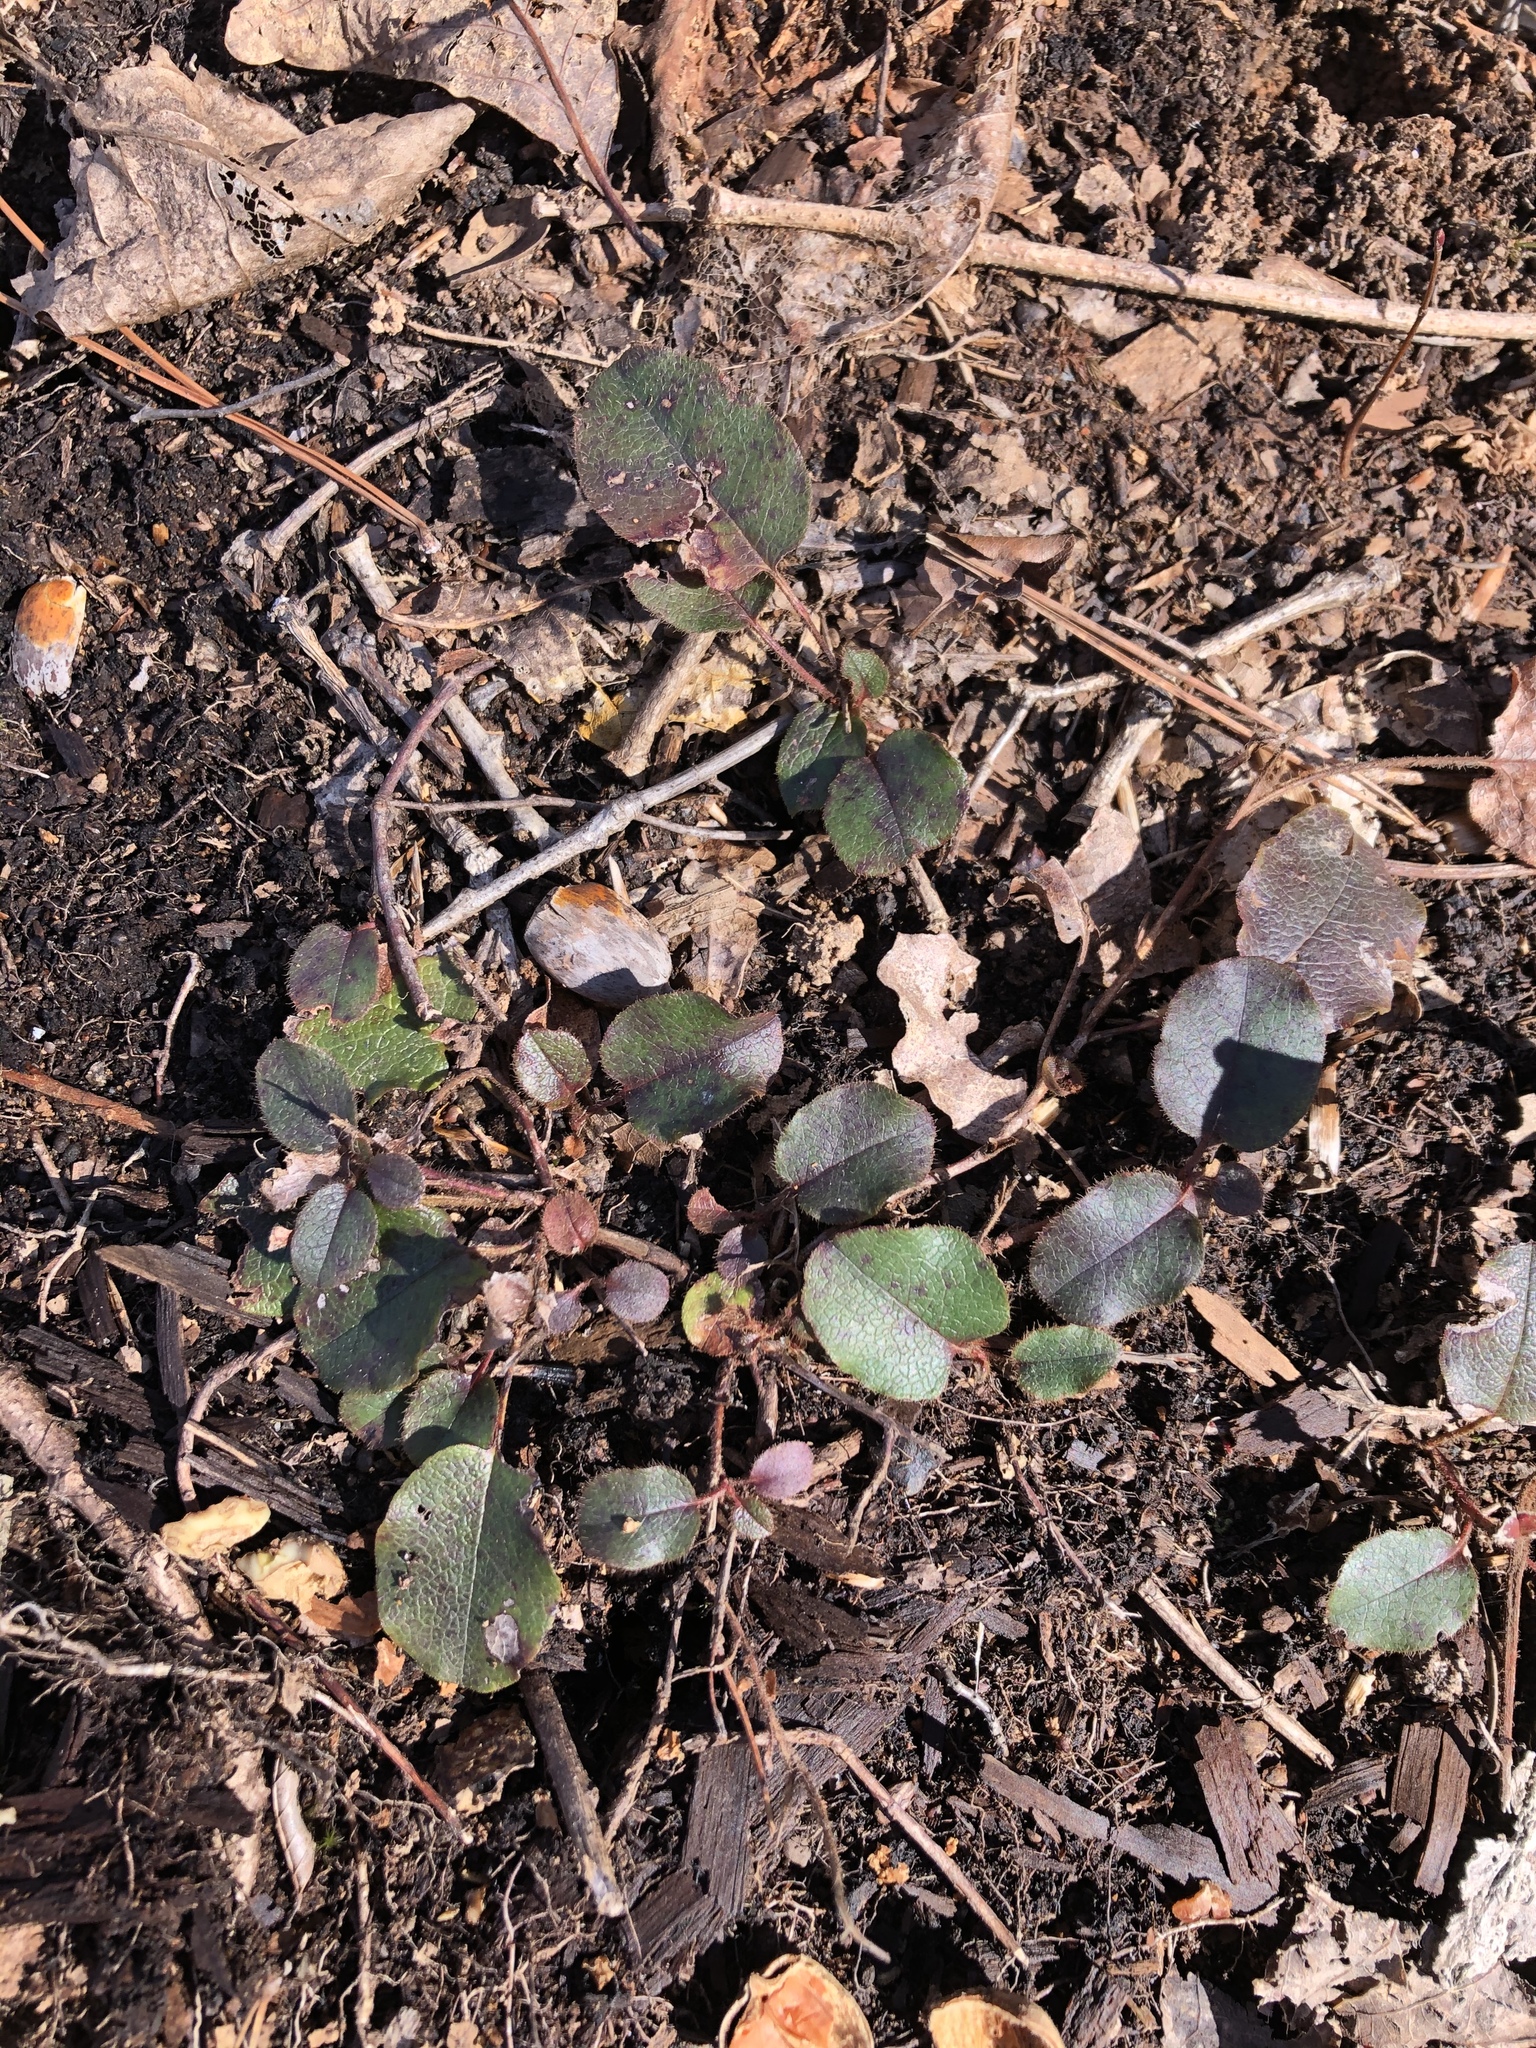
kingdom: Plantae
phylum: Tracheophyta
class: Magnoliopsida
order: Ericales
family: Ericaceae
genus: Epigaea
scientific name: Epigaea repens
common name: Gravelroot
